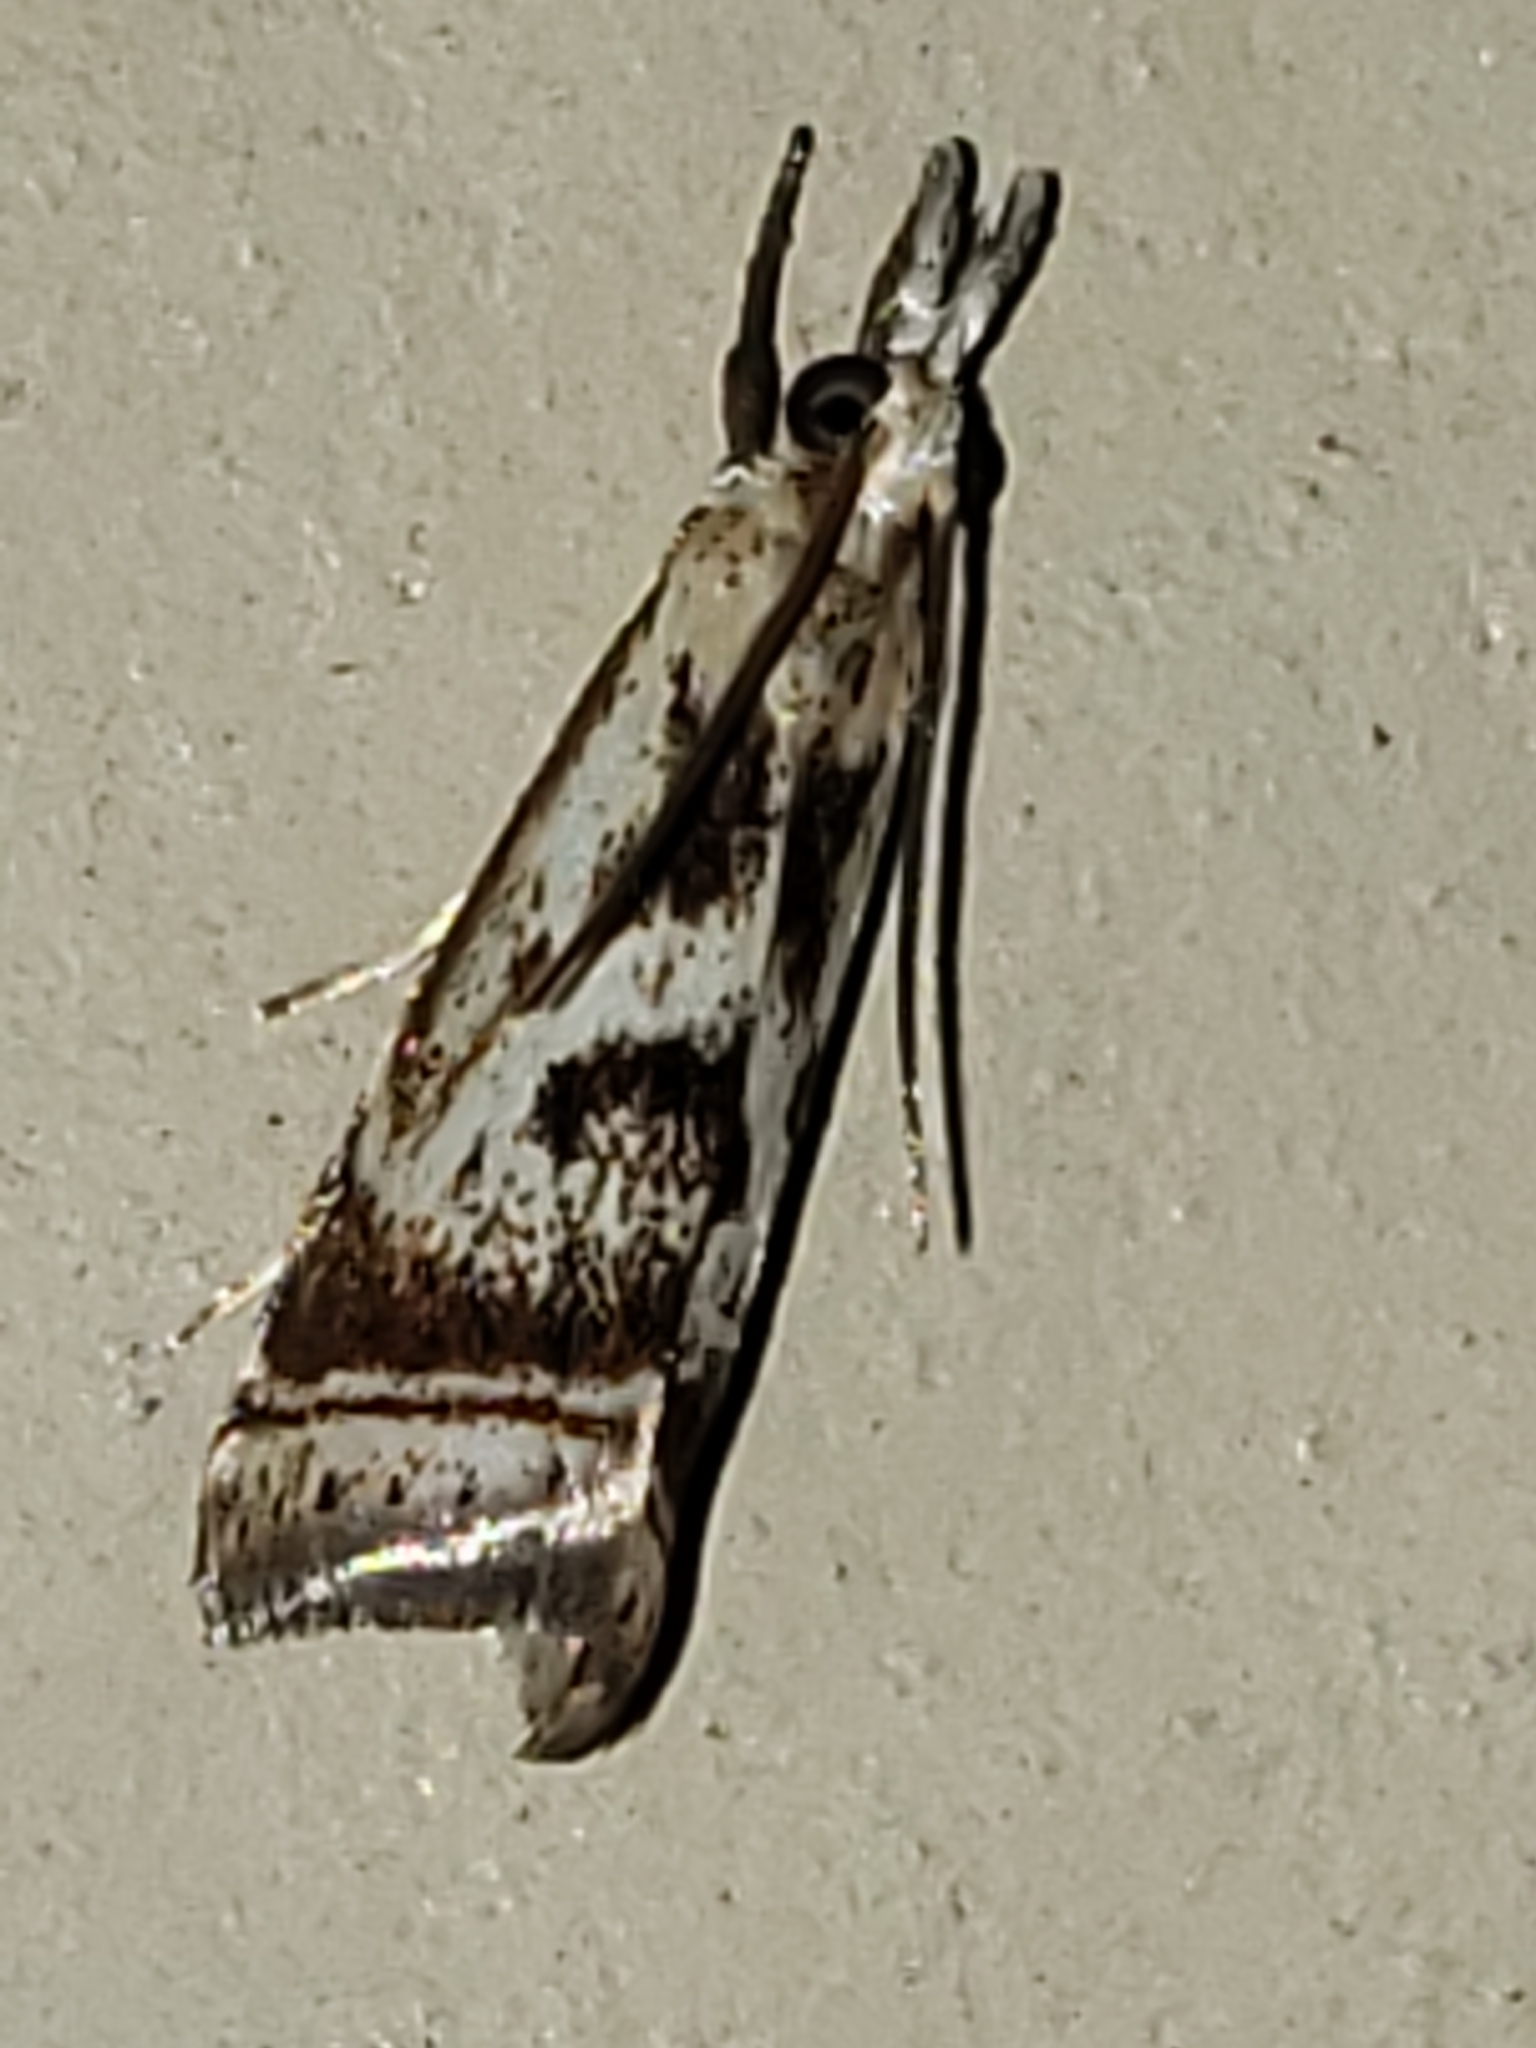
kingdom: Animalia
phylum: Arthropoda
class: Insecta
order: Lepidoptera
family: Crambidae
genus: Microcrambus
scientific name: Microcrambus elegans
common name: Elegant grass-veneer
